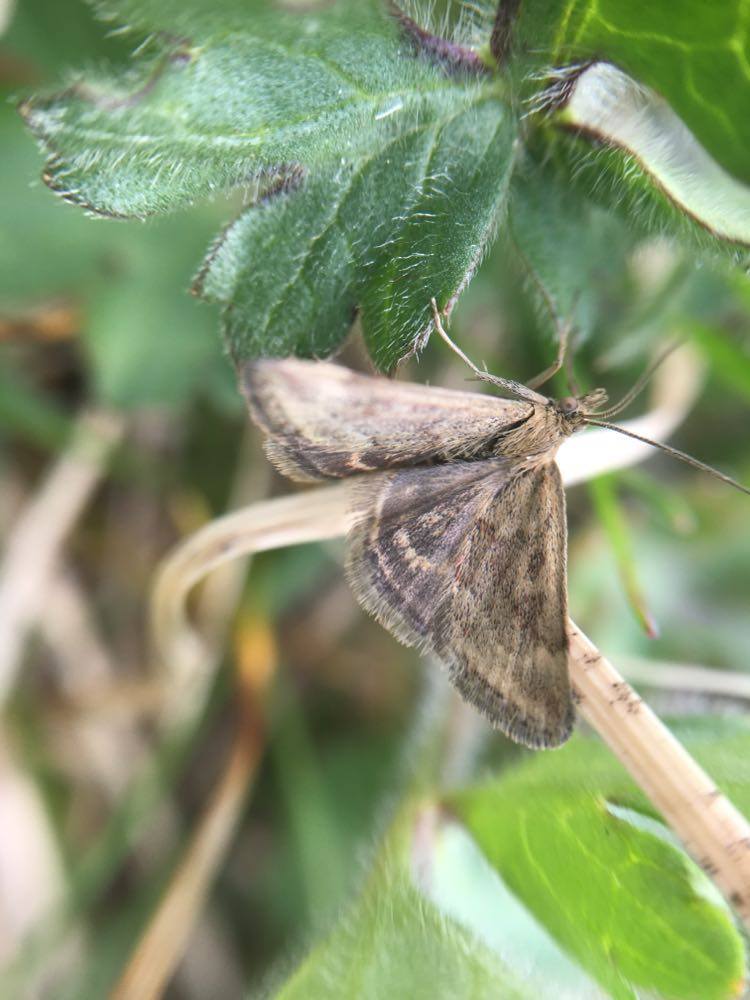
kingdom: Animalia
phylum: Arthropoda
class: Insecta
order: Lepidoptera
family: Crambidae
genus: Pyrausta
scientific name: Pyrausta despicata
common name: Straw-barred pearl
